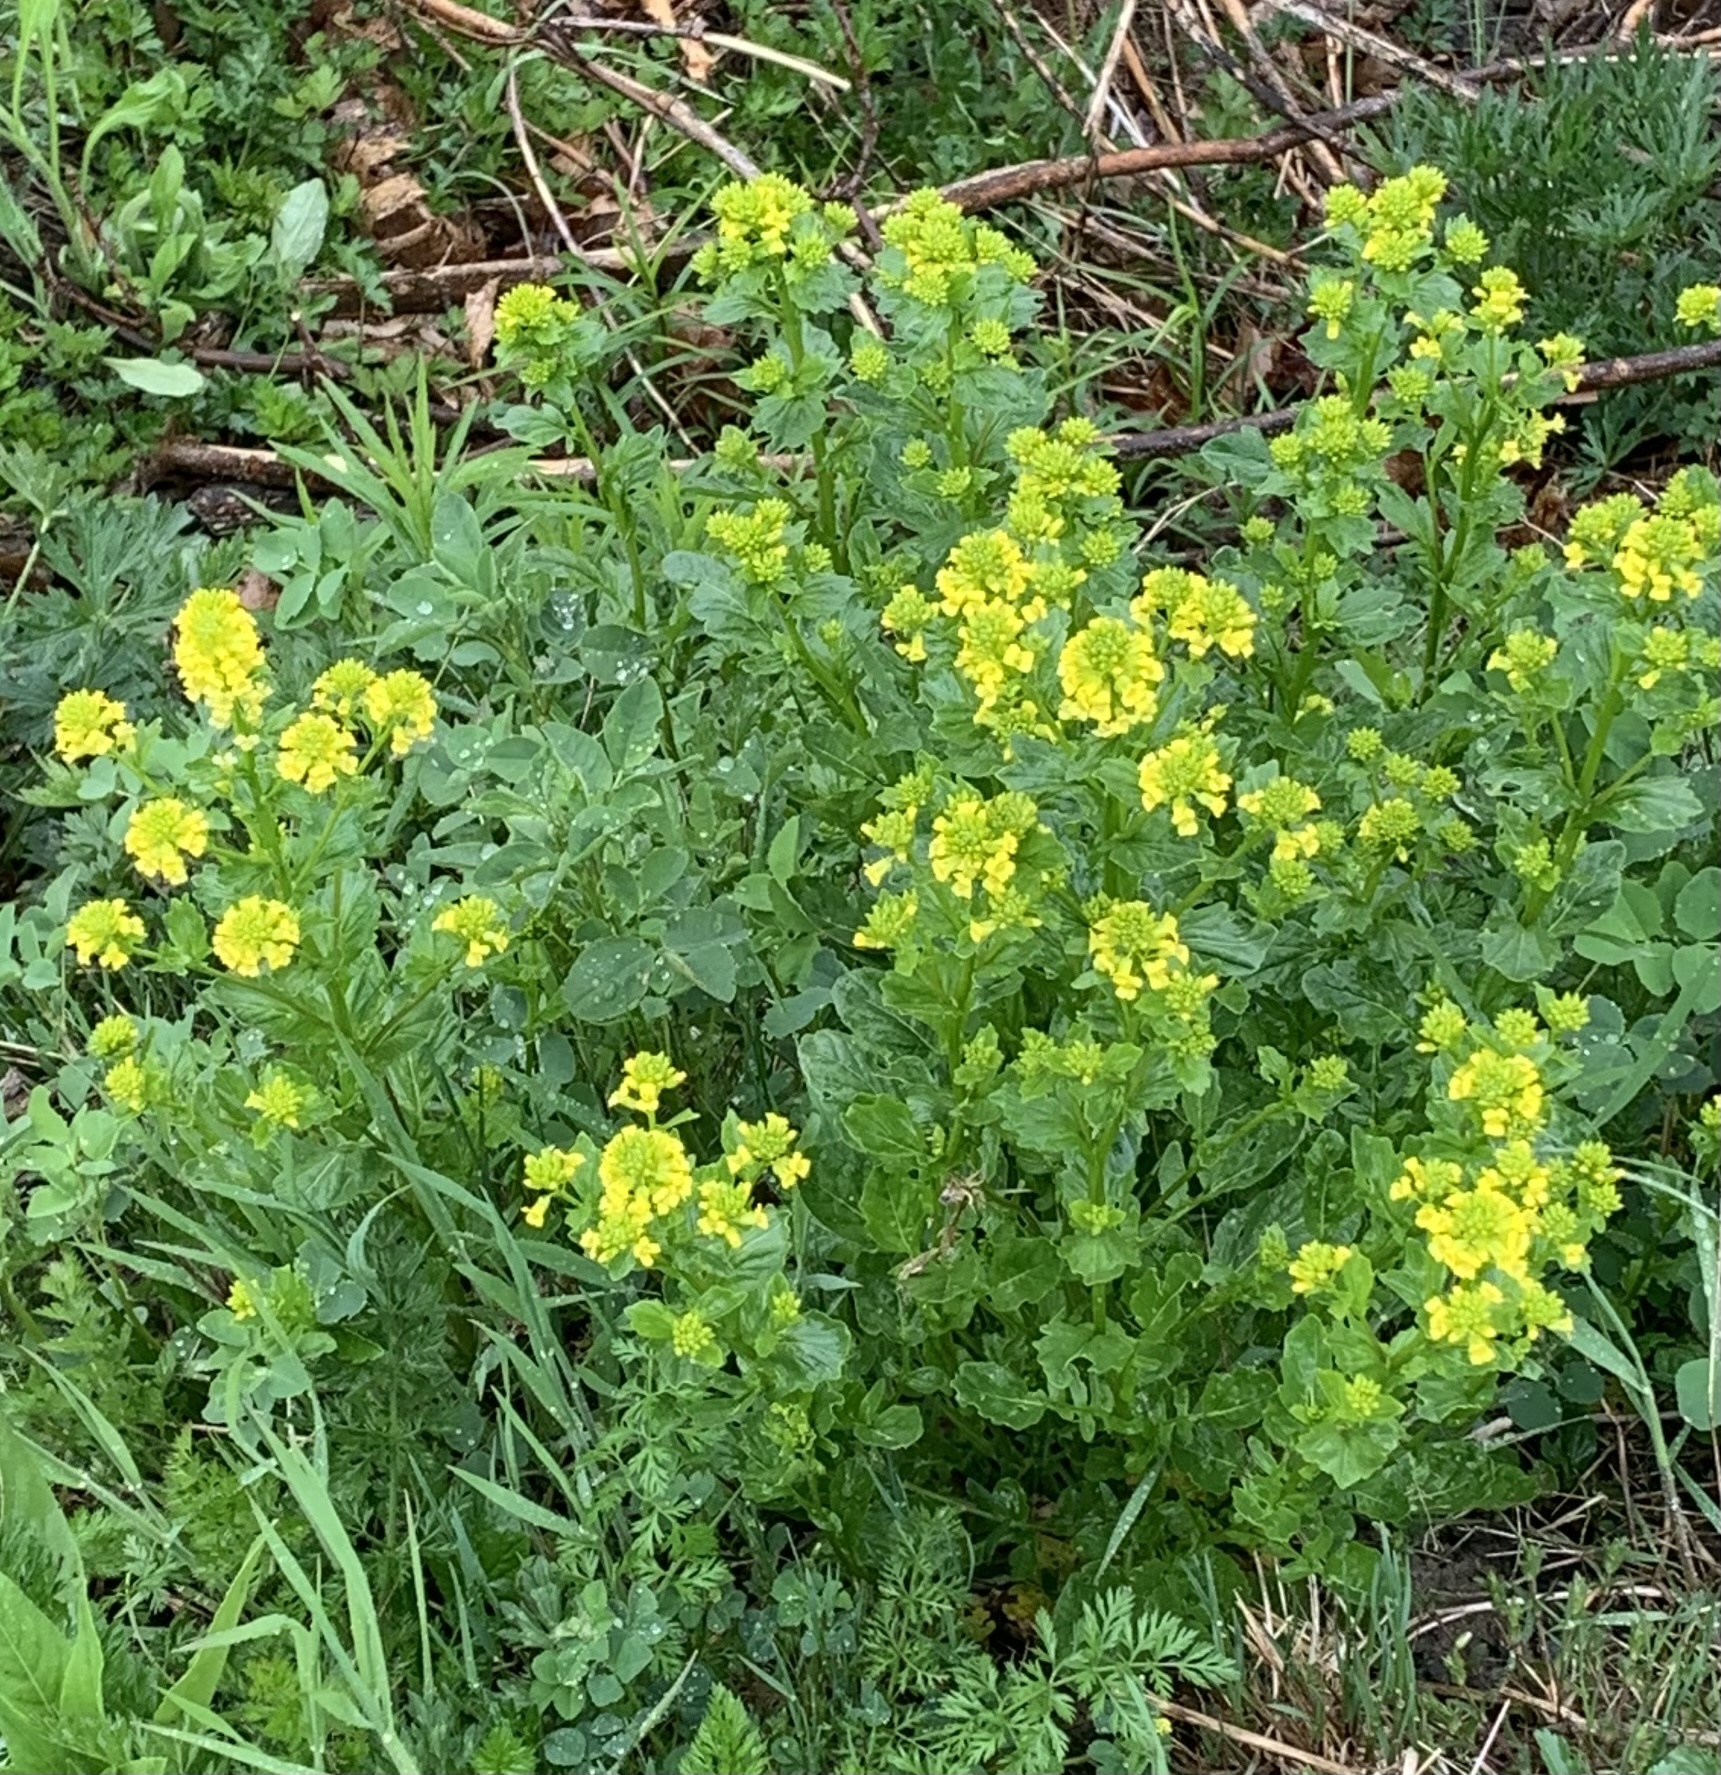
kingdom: Plantae
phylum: Tracheophyta
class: Magnoliopsida
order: Brassicales
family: Brassicaceae
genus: Barbarea
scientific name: Barbarea vulgaris
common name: Cressy-greens
